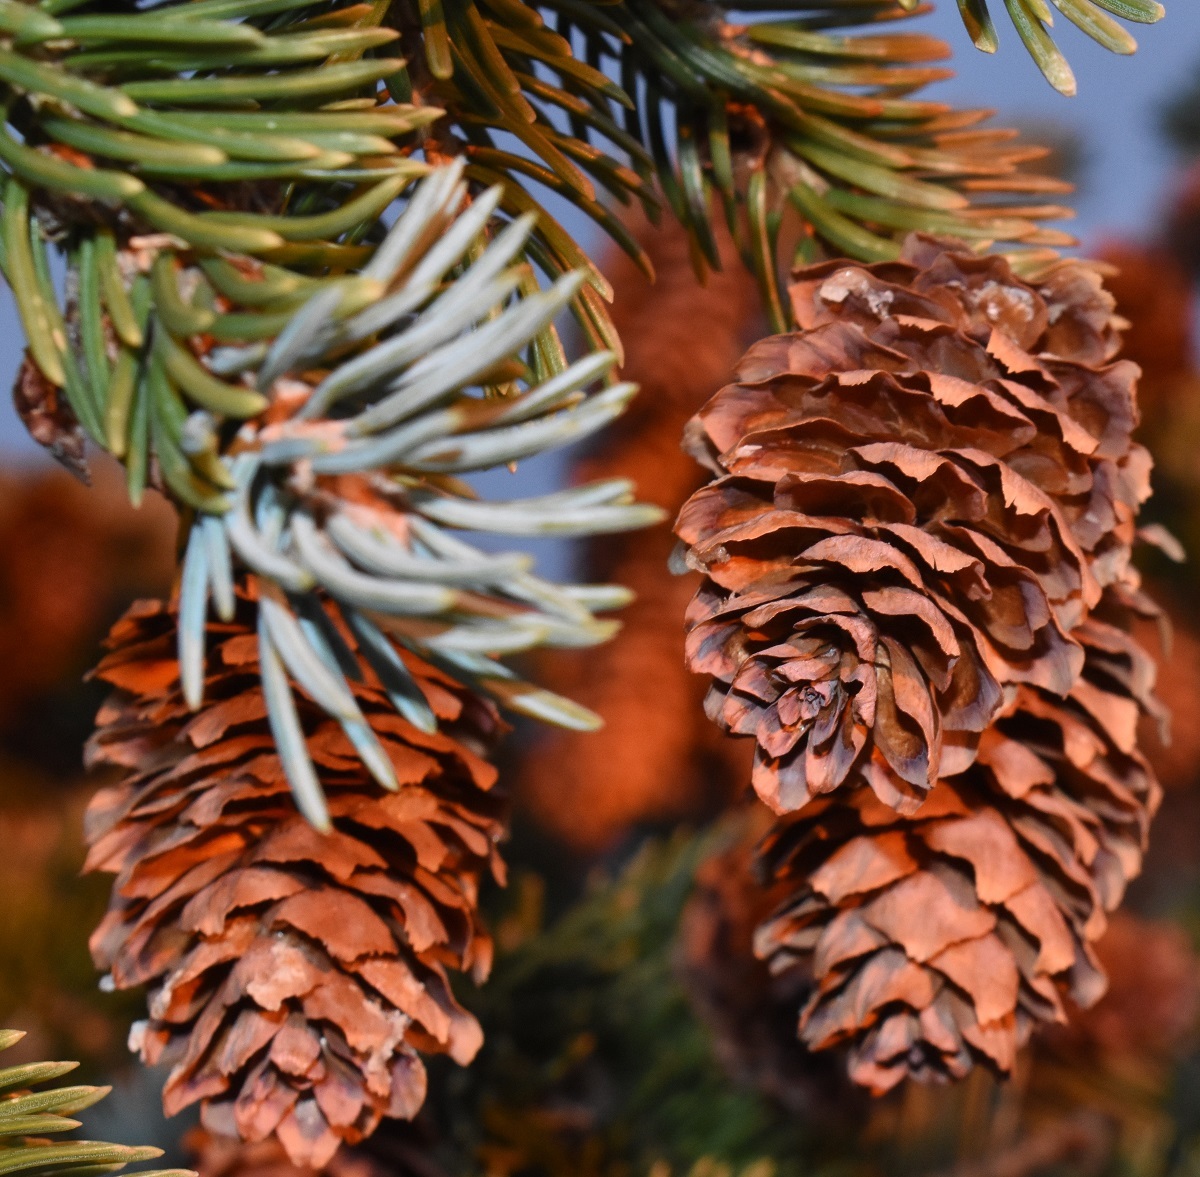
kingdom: Plantae
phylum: Tracheophyta
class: Pinopsida
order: Pinales
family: Pinaceae
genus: Picea
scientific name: Picea engelmannii
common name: Engelmann spruce
